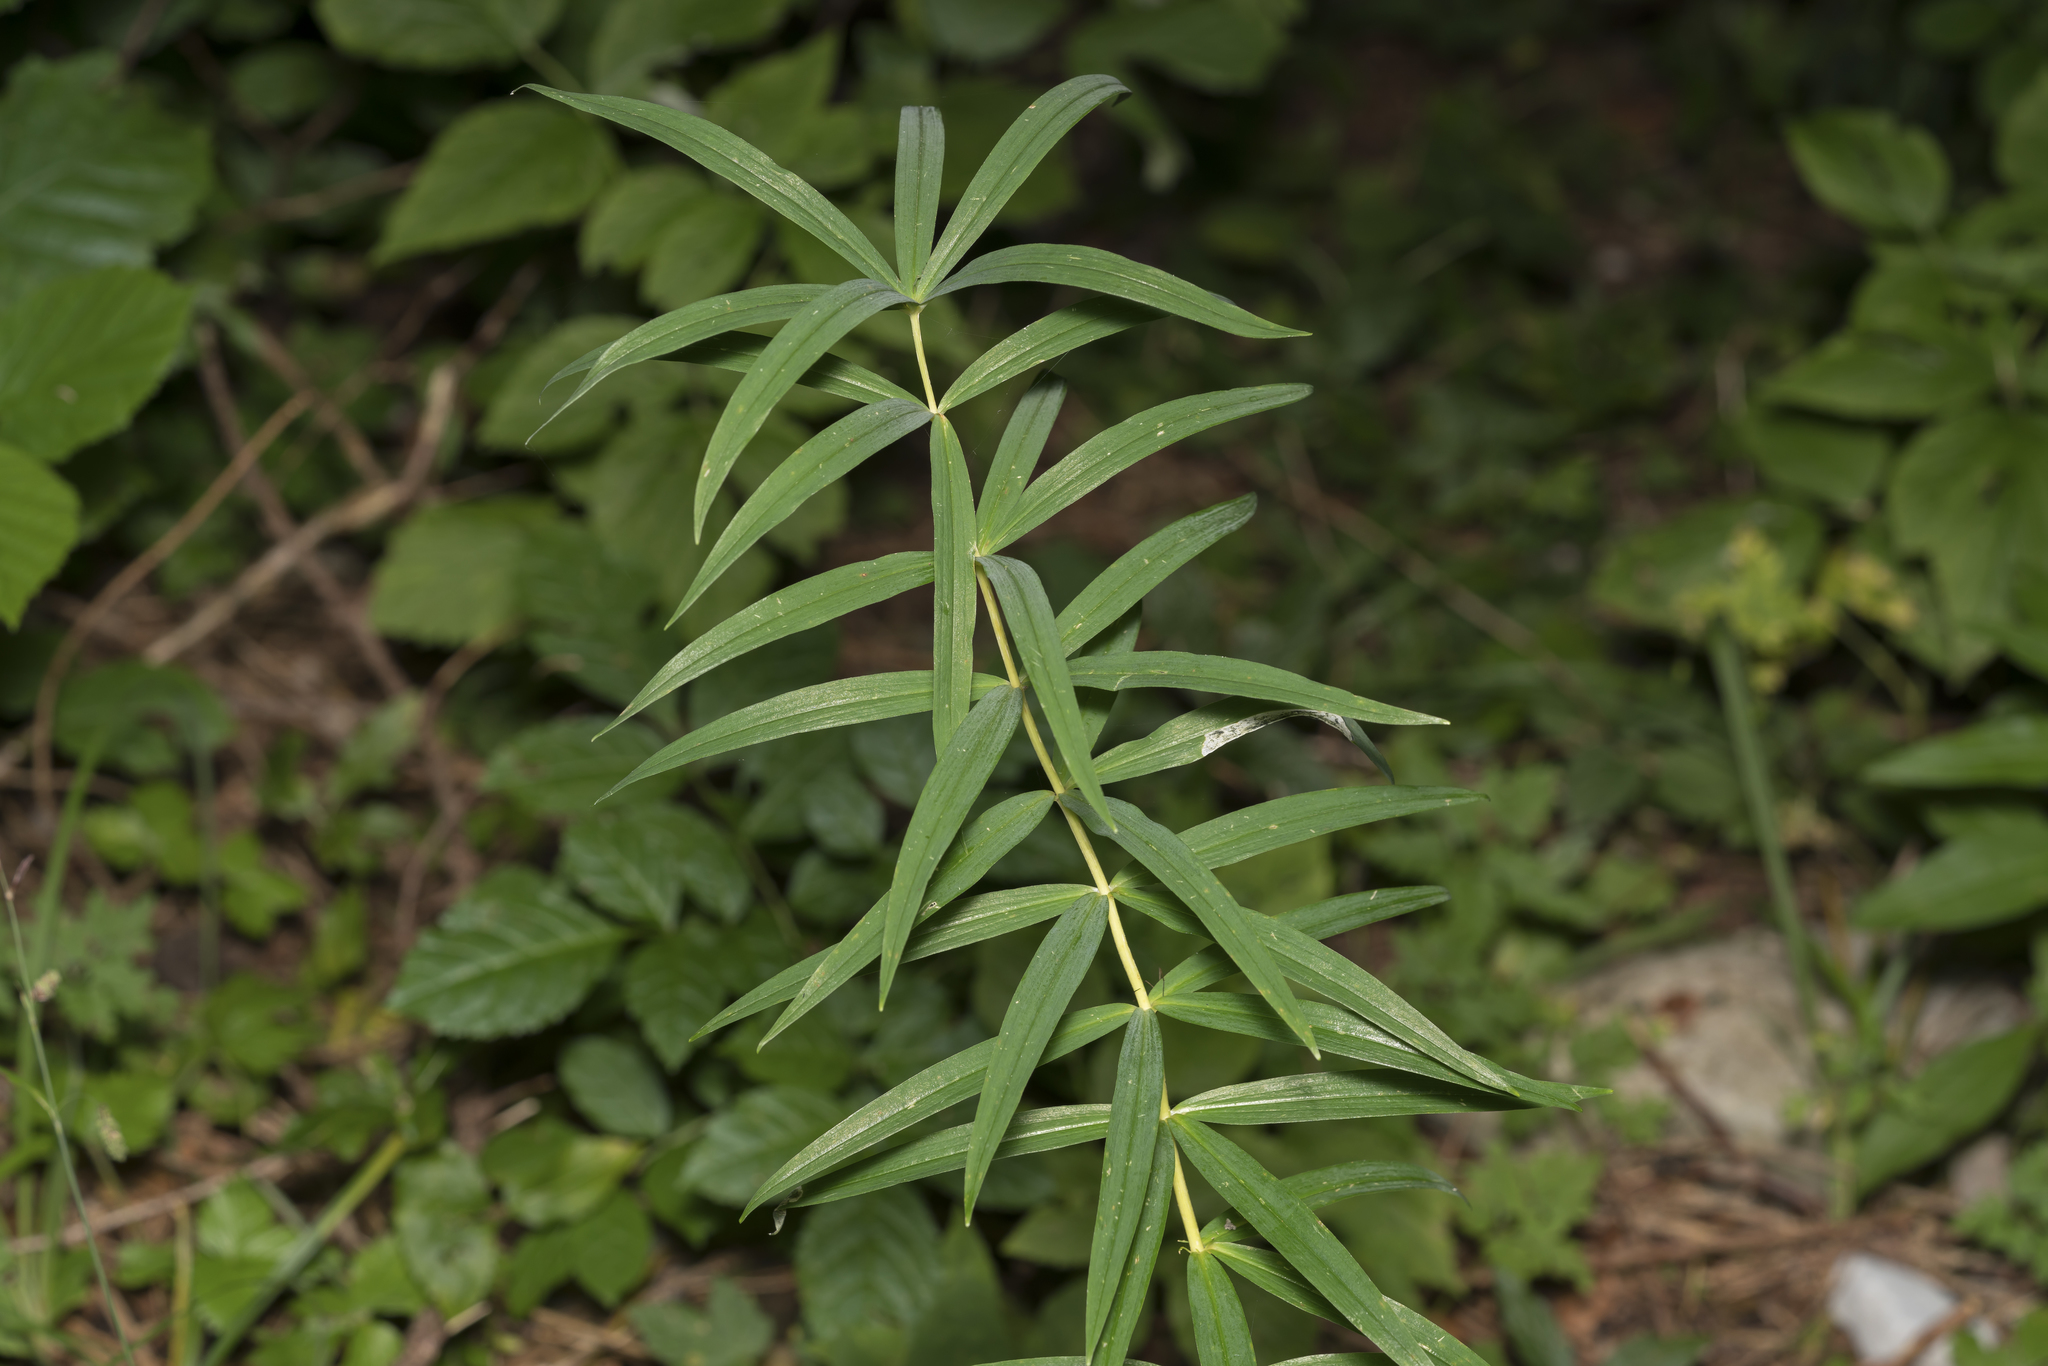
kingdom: Plantae
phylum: Tracheophyta
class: Liliopsida
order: Asparagales
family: Asparagaceae
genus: Polygonatum
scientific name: Polygonatum verticillatum
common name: Whorled solomon's-seal
